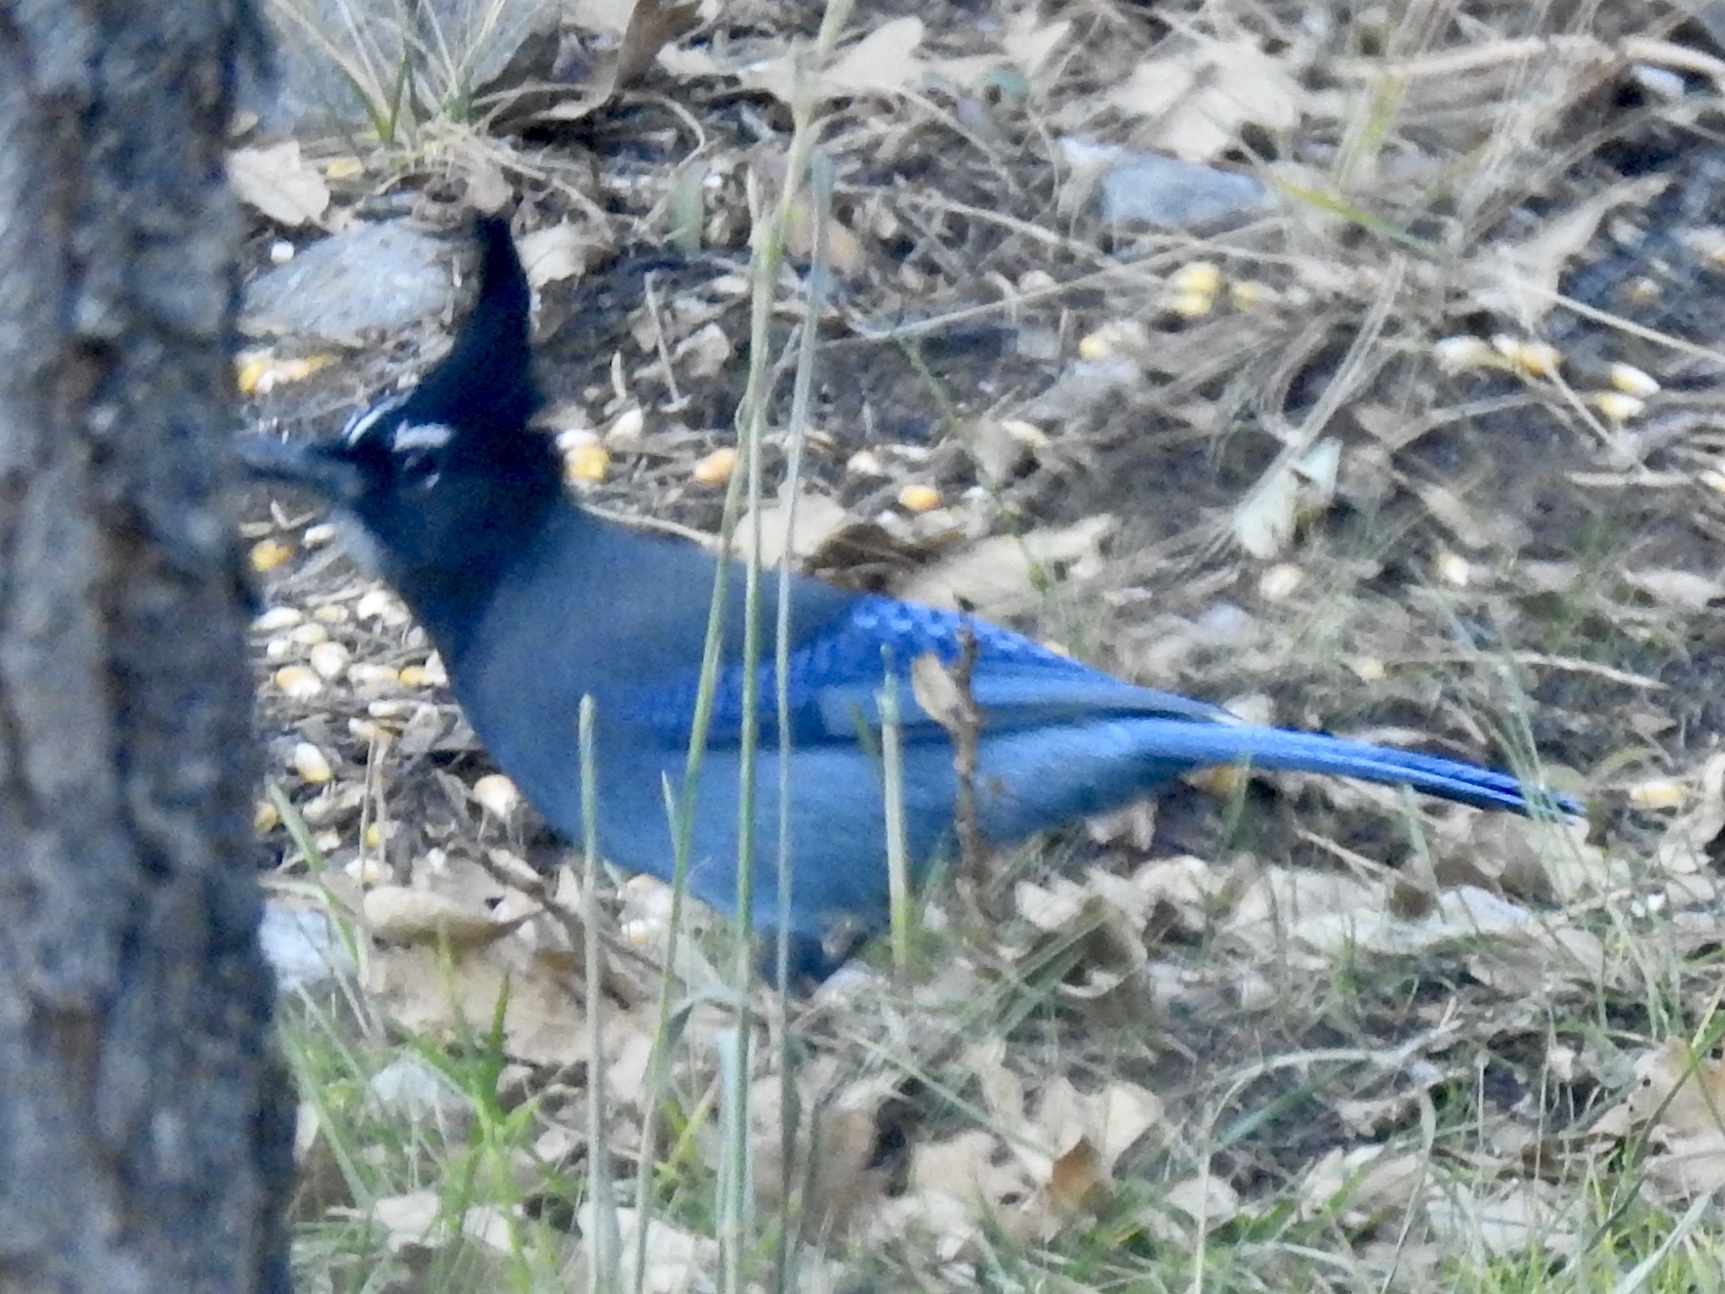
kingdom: Animalia
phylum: Chordata
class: Aves
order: Passeriformes
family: Corvidae
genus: Cyanocitta
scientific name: Cyanocitta stelleri
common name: Steller's jay
